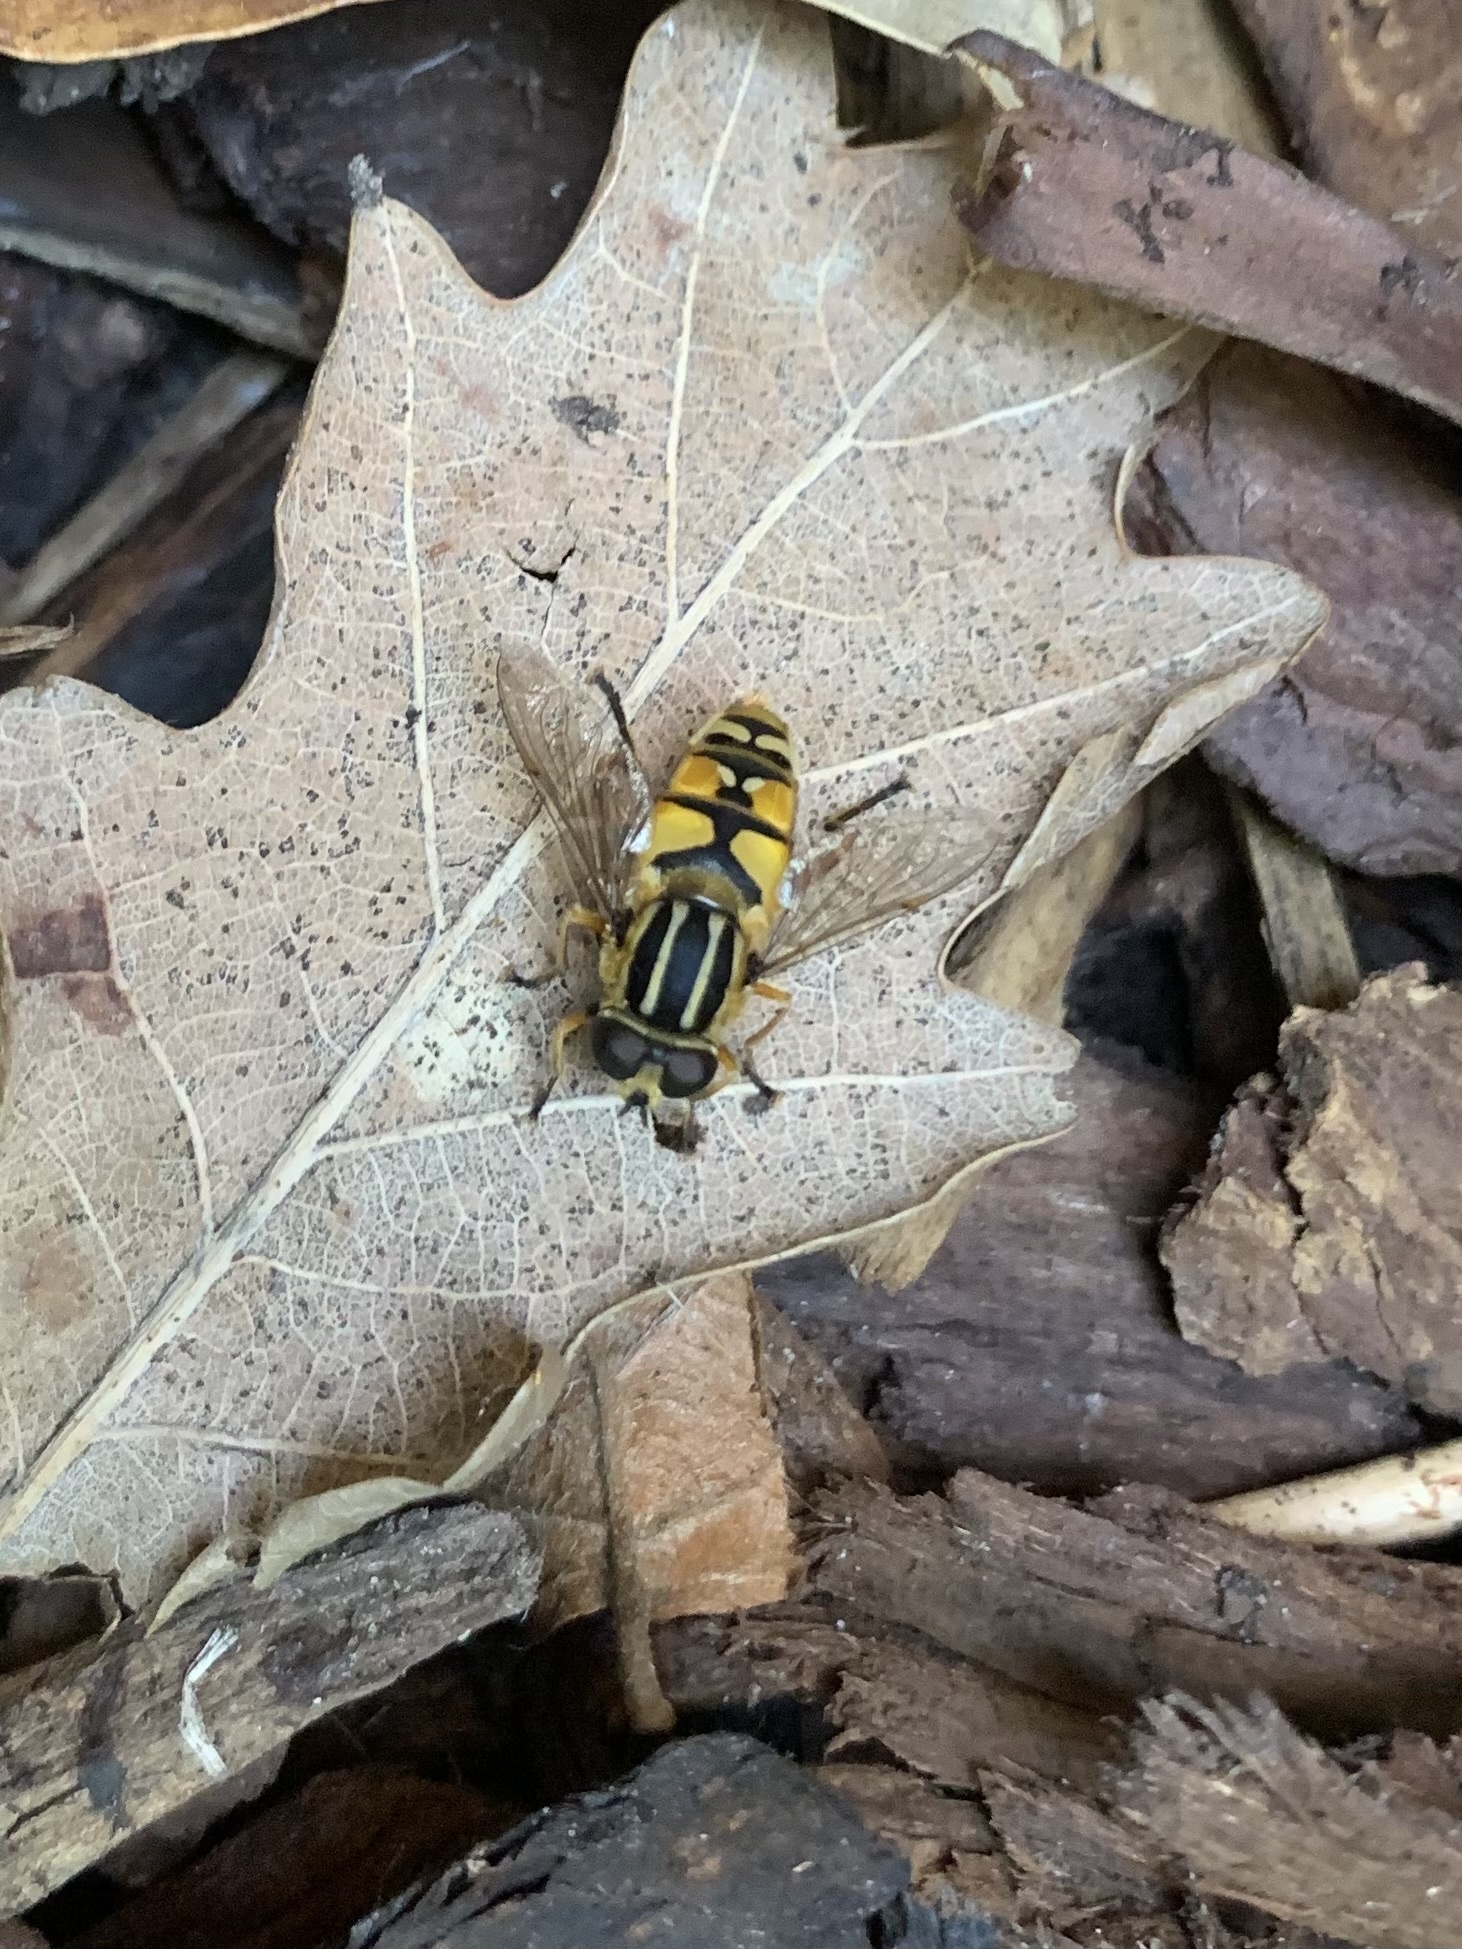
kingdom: Animalia
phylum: Arthropoda
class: Insecta
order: Diptera
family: Syrphidae
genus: Helophilus
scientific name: Helophilus pendulus
